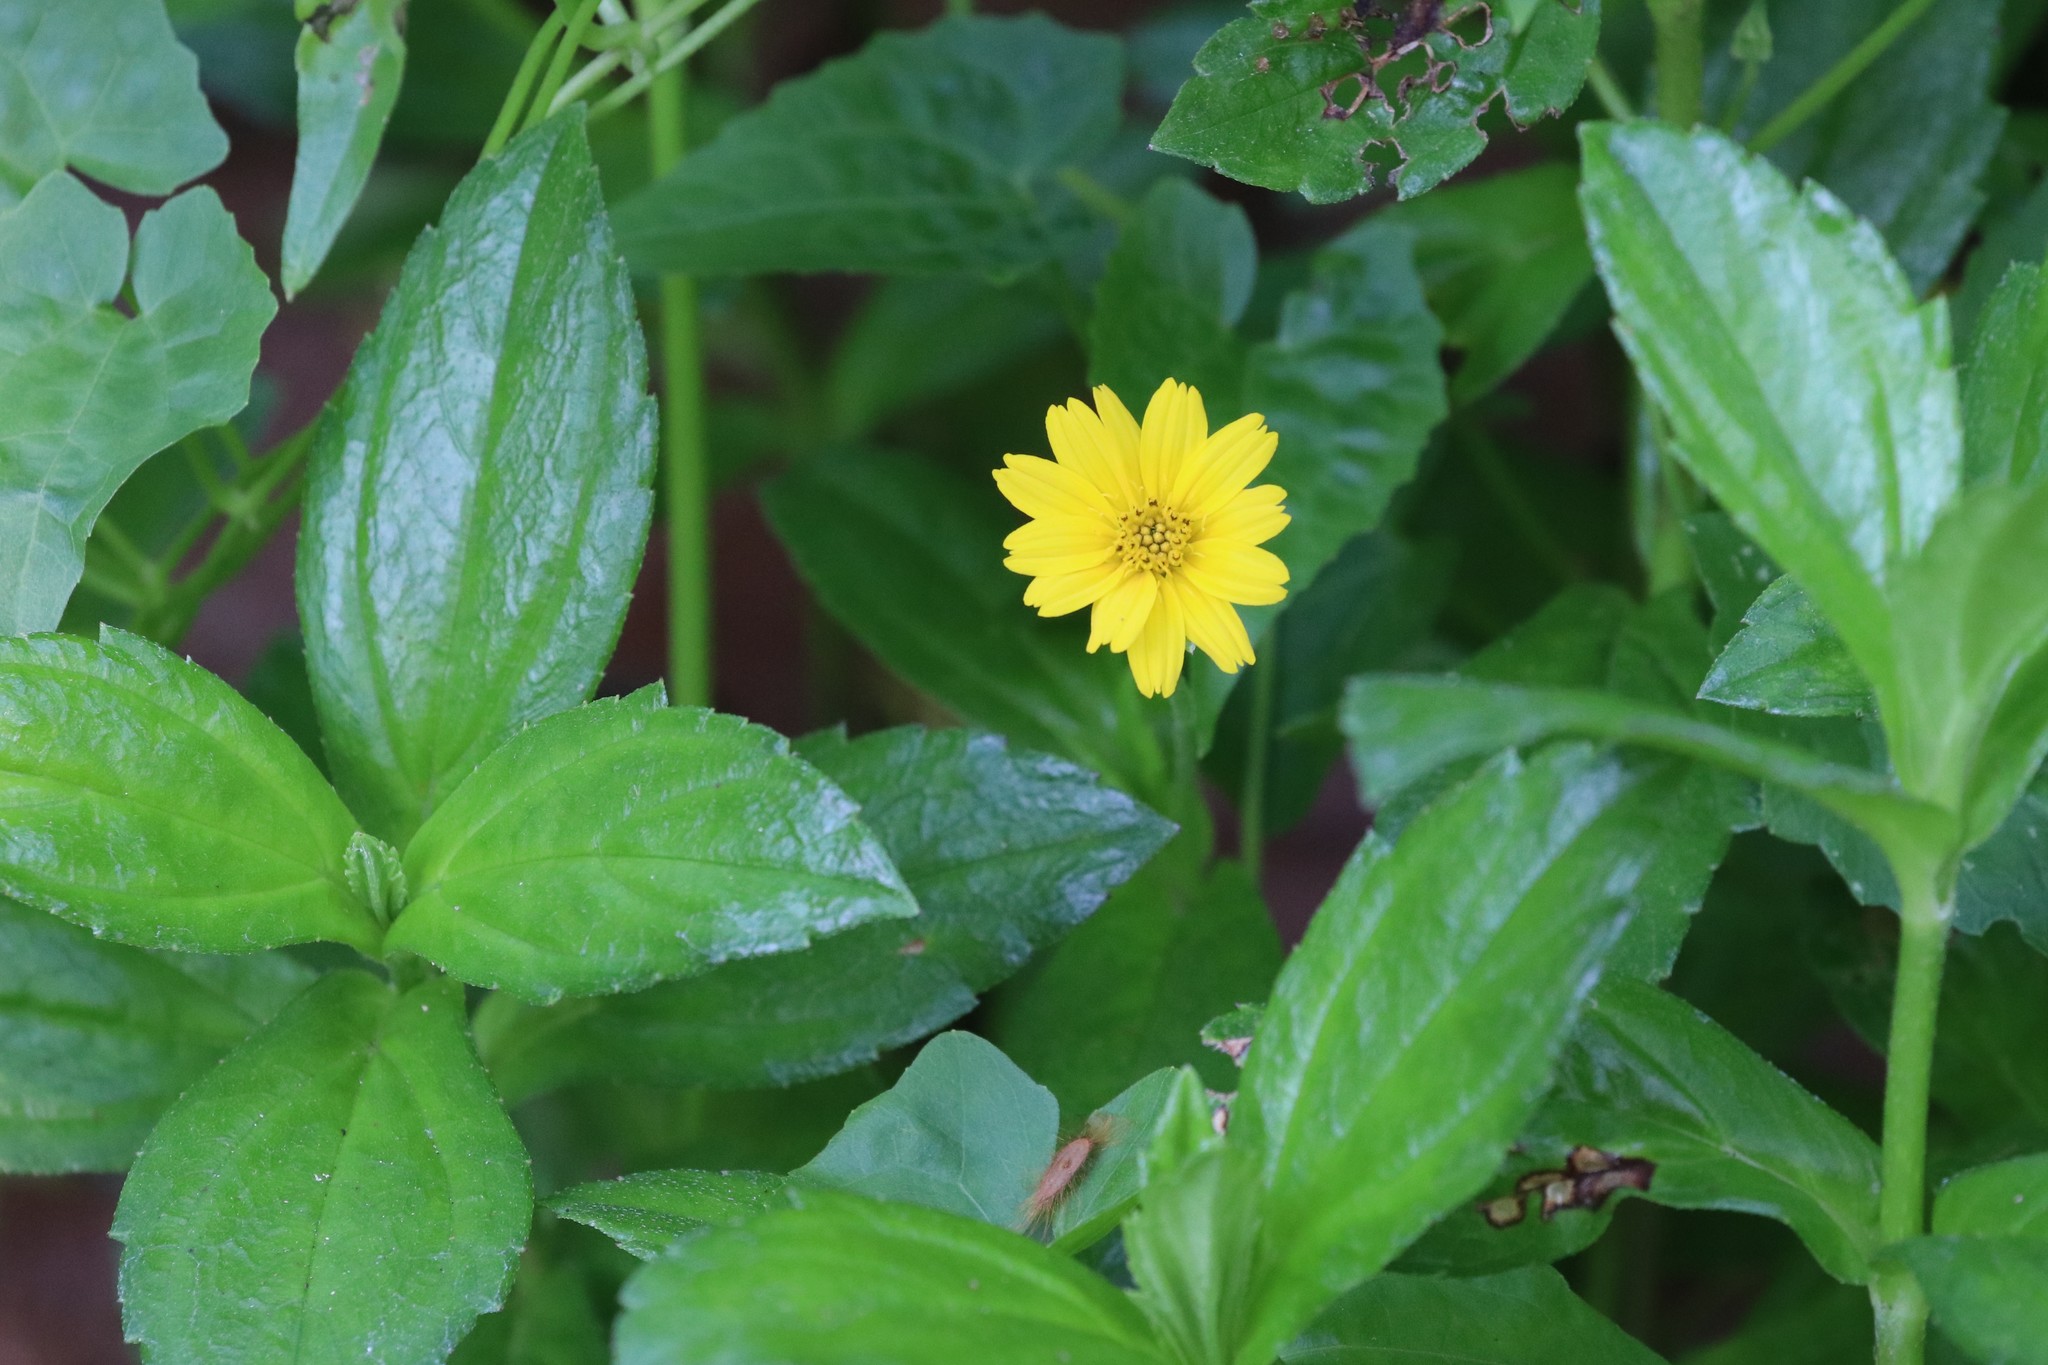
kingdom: Plantae
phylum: Tracheophyta
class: Magnoliopsida
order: Asterales
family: Asteraceae
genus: Sphagneticola
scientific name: Sphagneticola trilobata
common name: Bay biscayne creeping-oxeye
